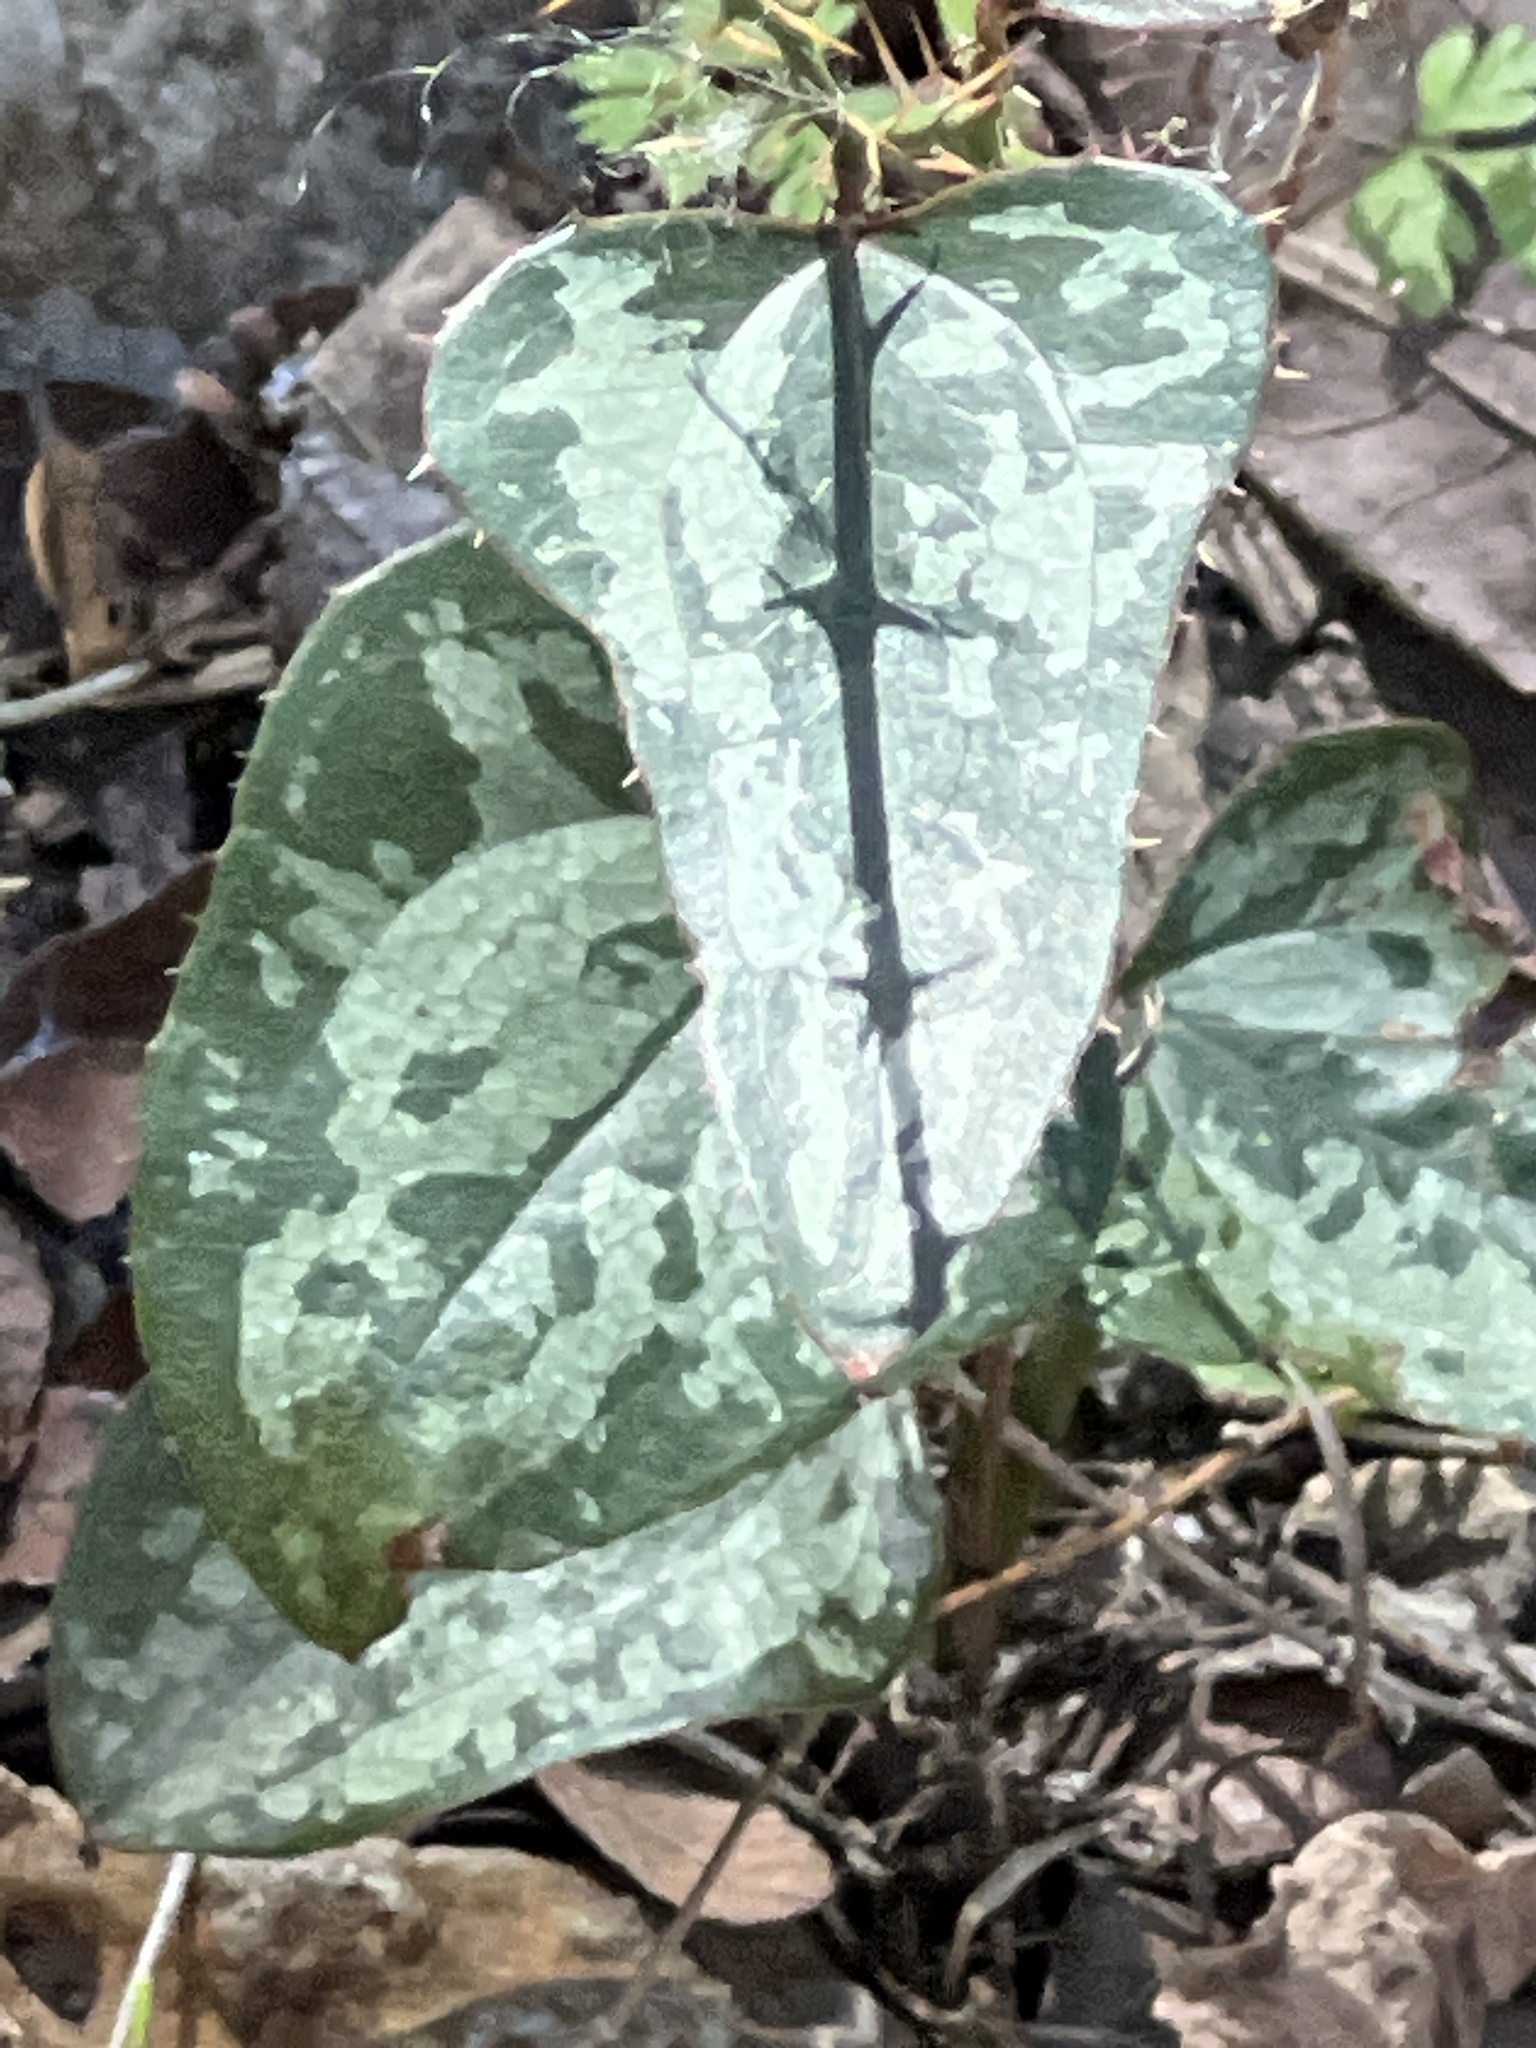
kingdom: Plantae
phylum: Tracheophyta
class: Liliopsida
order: Liliales
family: Smilacaceae
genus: Smilax
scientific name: Smilax bona-nox
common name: Catbrier
